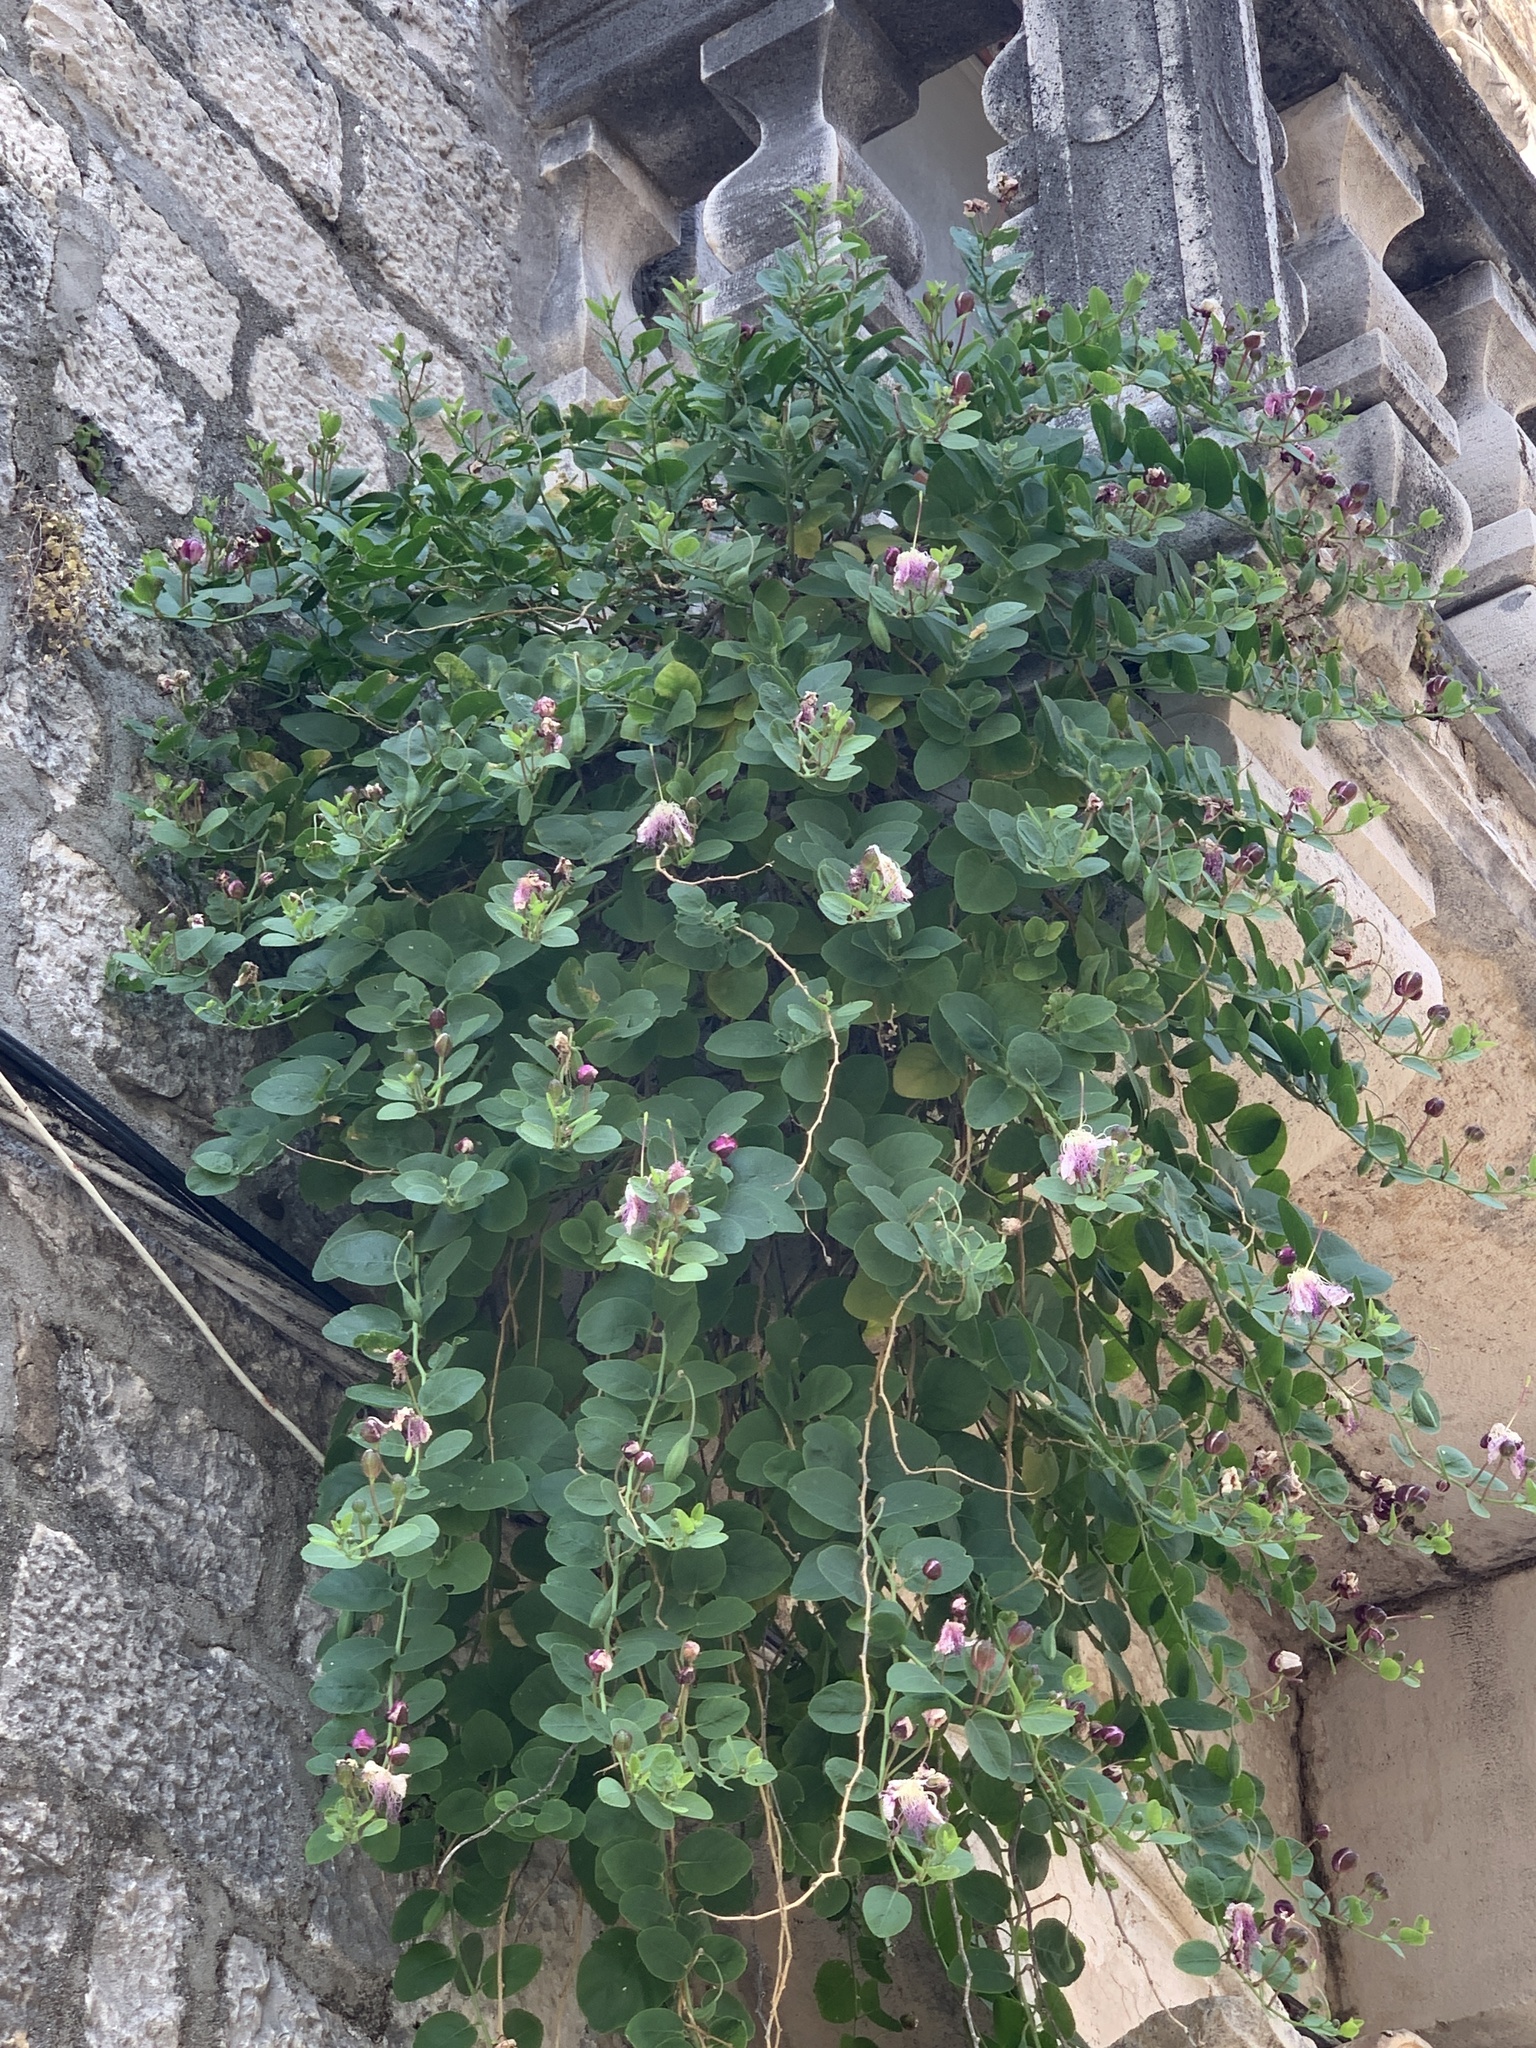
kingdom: Plantae
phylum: Tracheophyta
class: Magnoliopsida
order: Brassicales
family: Capparaceae
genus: Capparis
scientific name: Capparis orientalis
